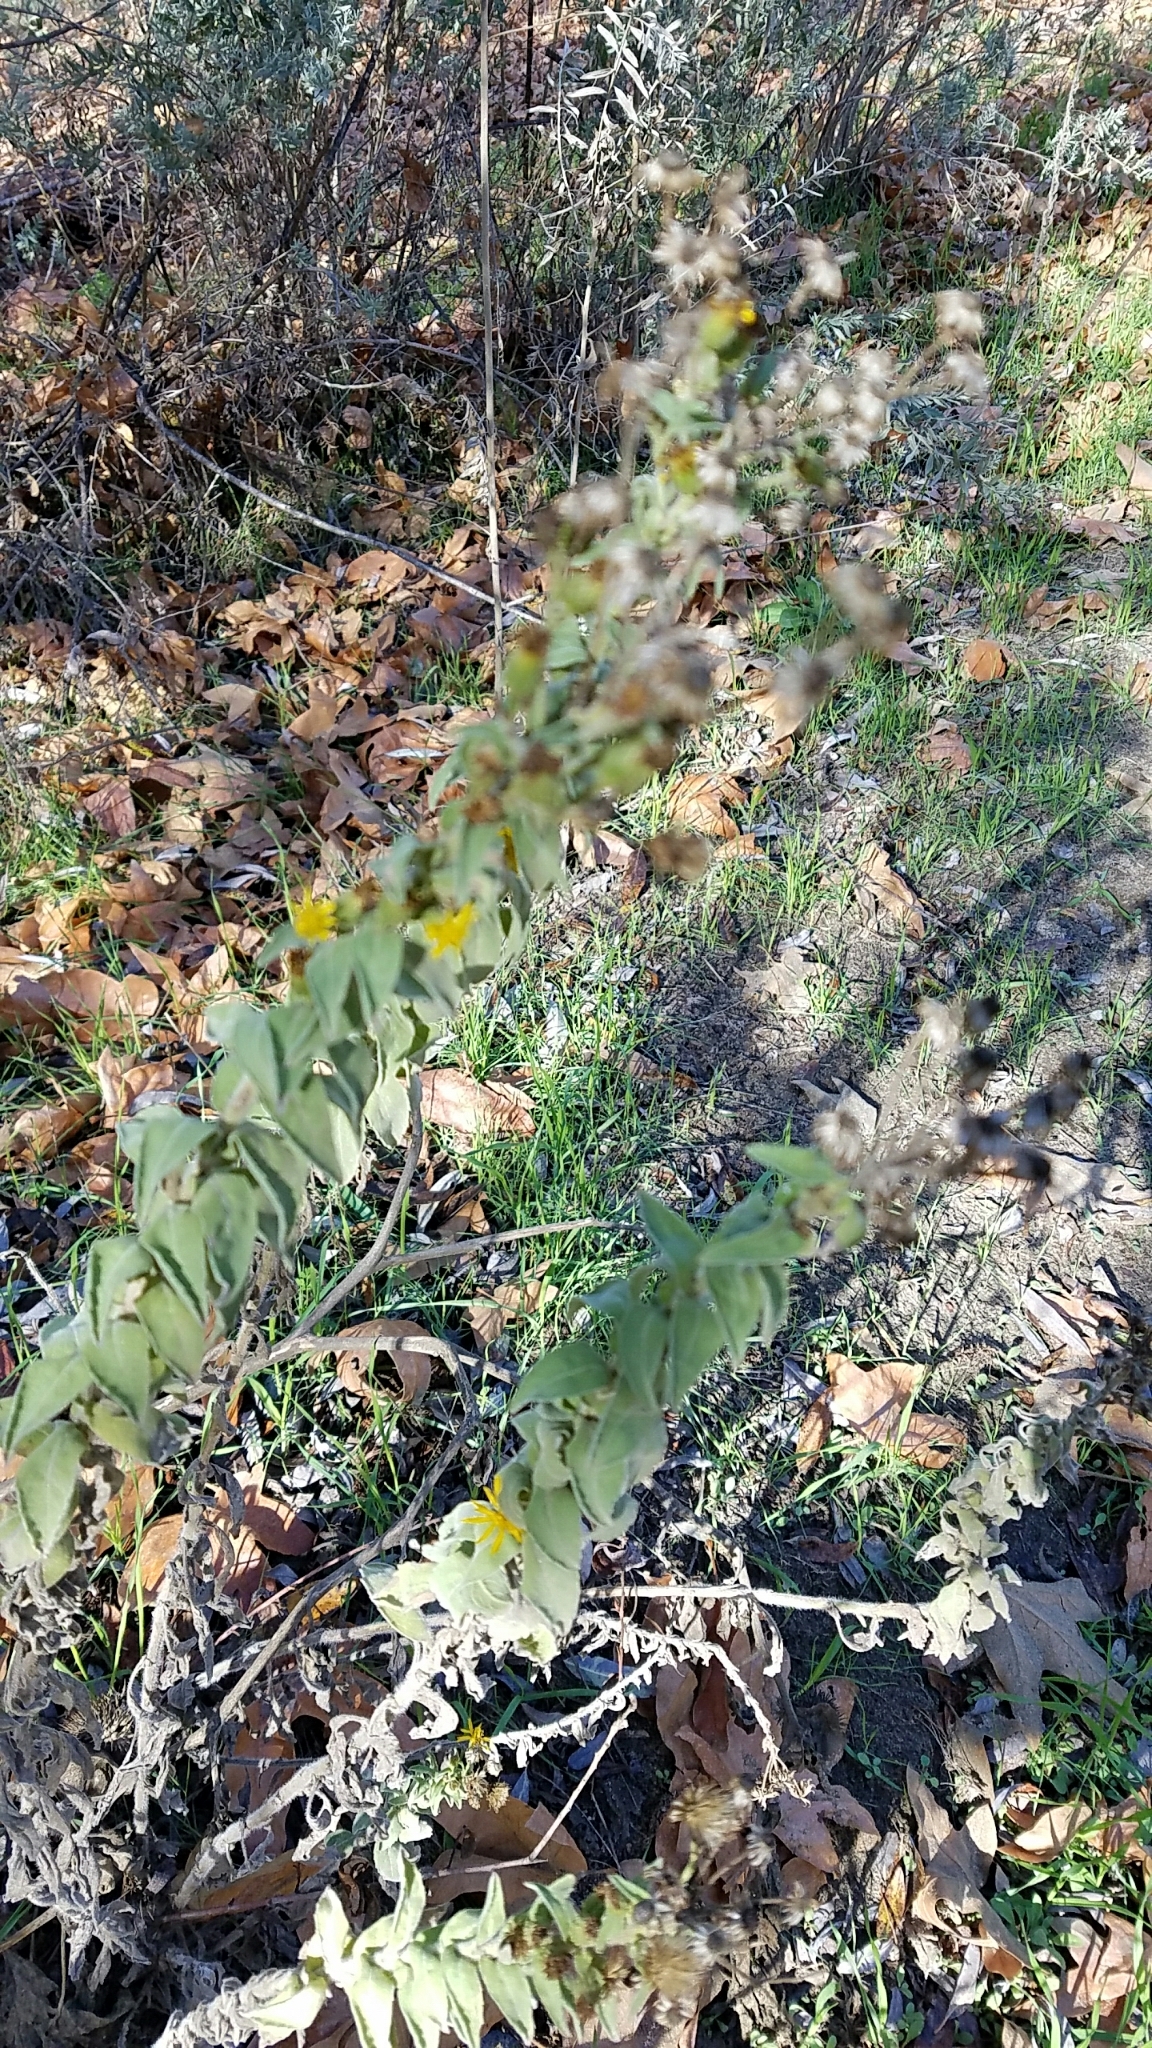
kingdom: Plantae
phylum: Tracheophyta
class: Magnoliopsida
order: Asterales
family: Asteraceae
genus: Heterotheca
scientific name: Heterotheca grandiflora
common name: Telegraphweed
